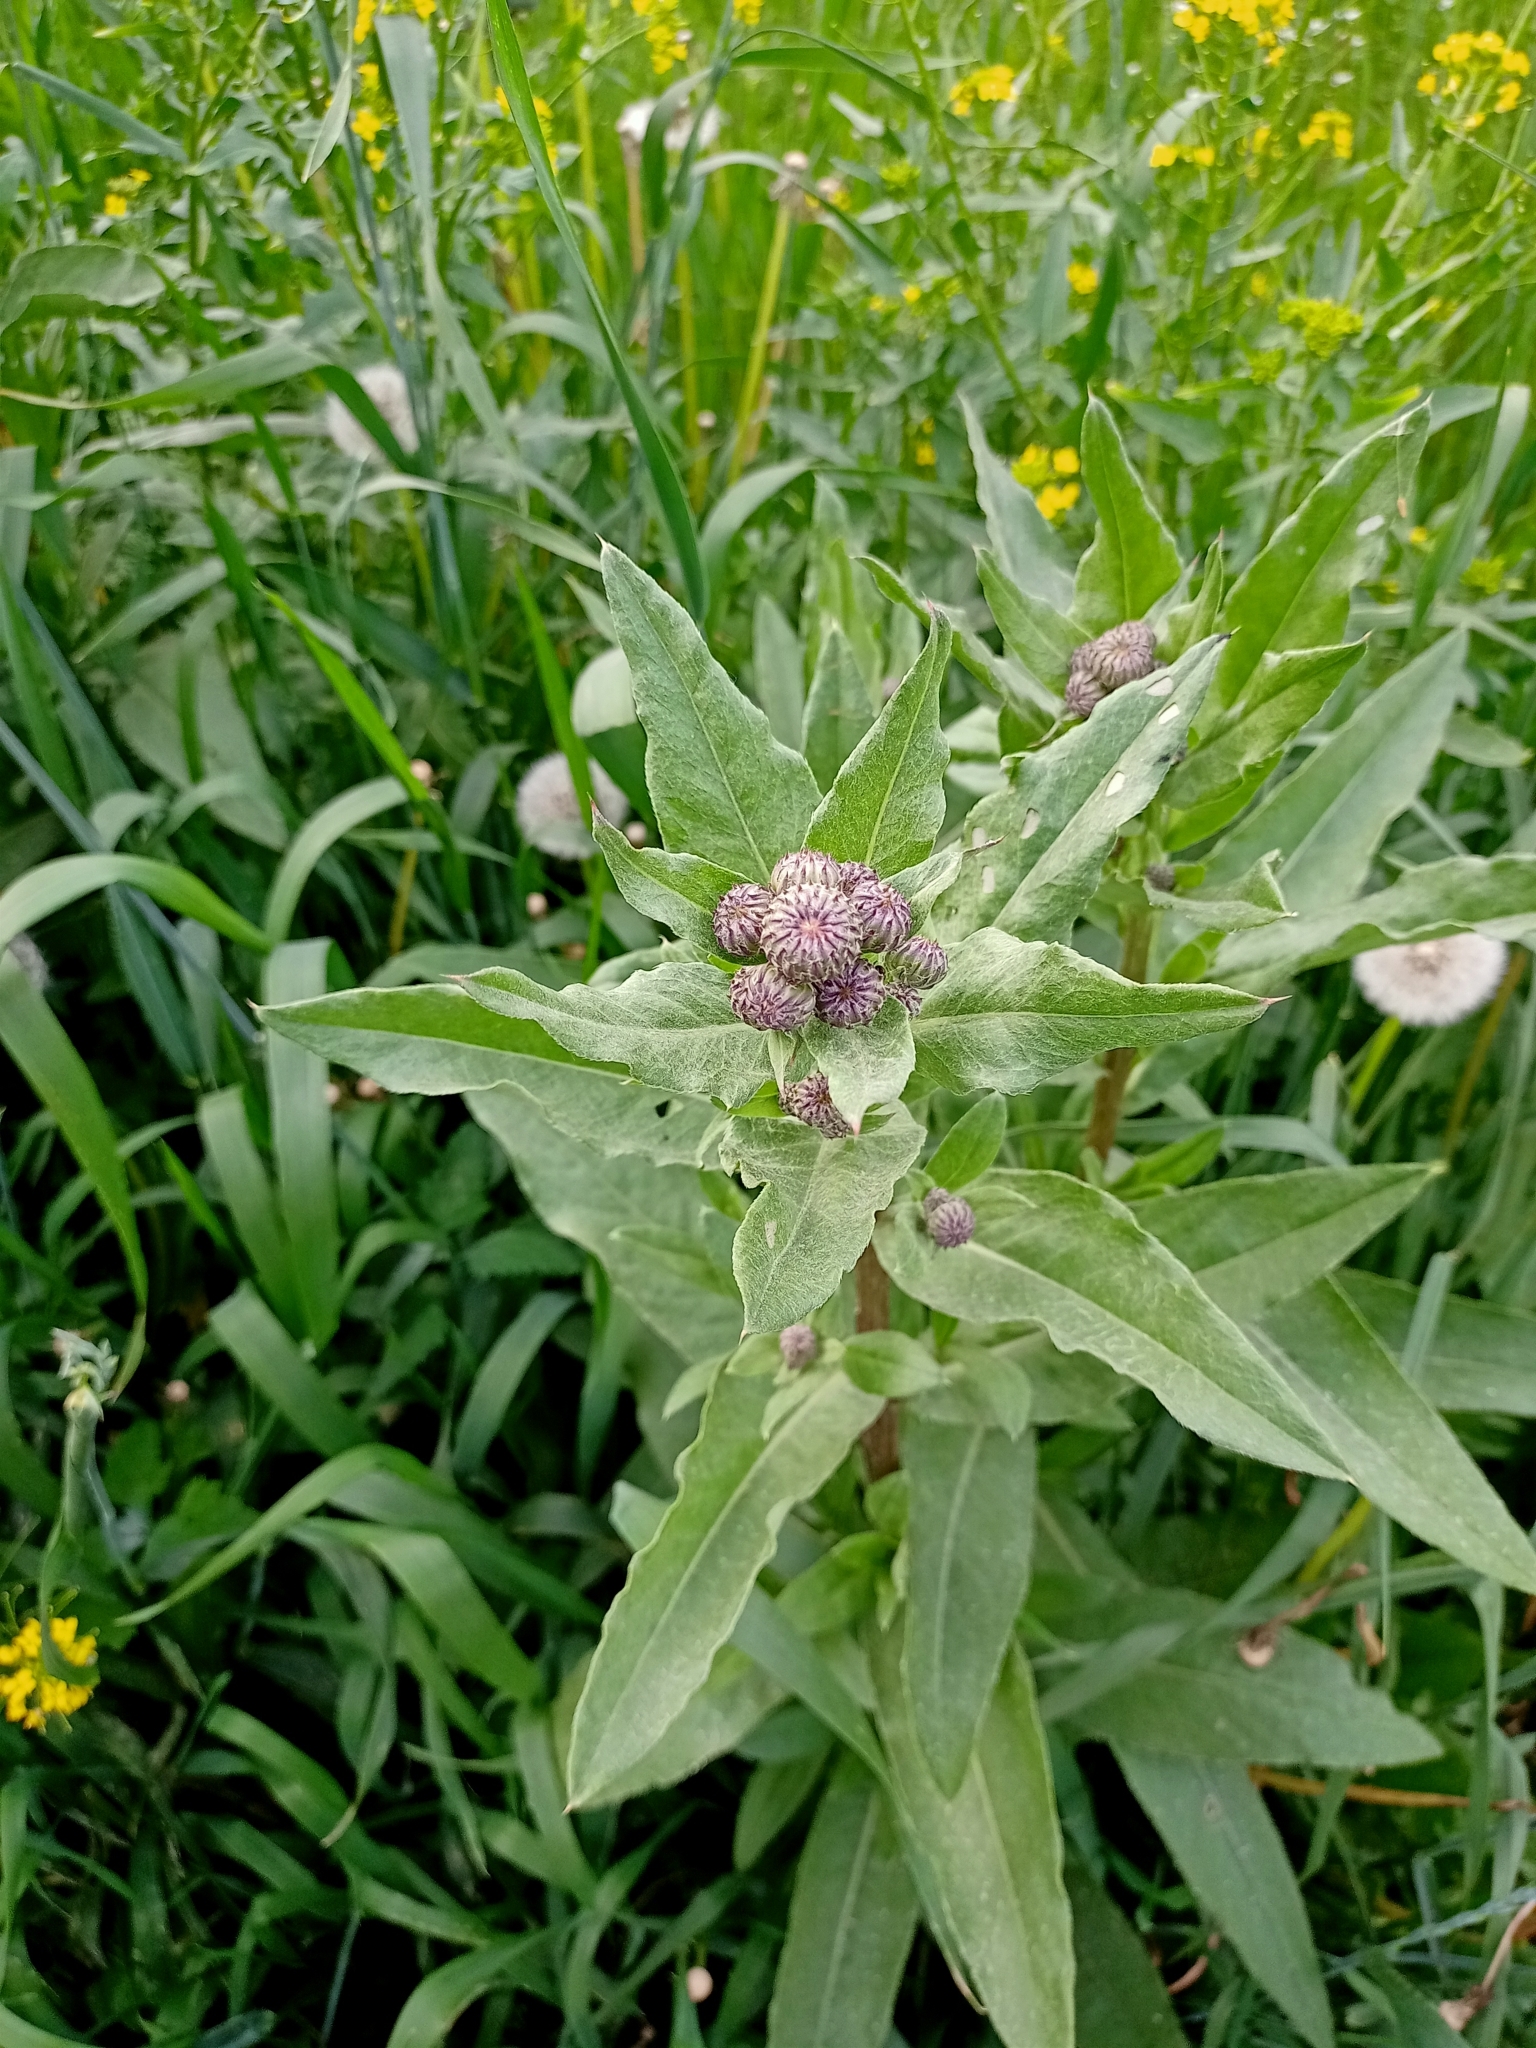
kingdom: Plantae
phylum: Tracheophyta
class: Magnoliopsida
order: Asterales
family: Asteraceae
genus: Cirsium
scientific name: Cirsium arvense
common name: Creeping thistle
